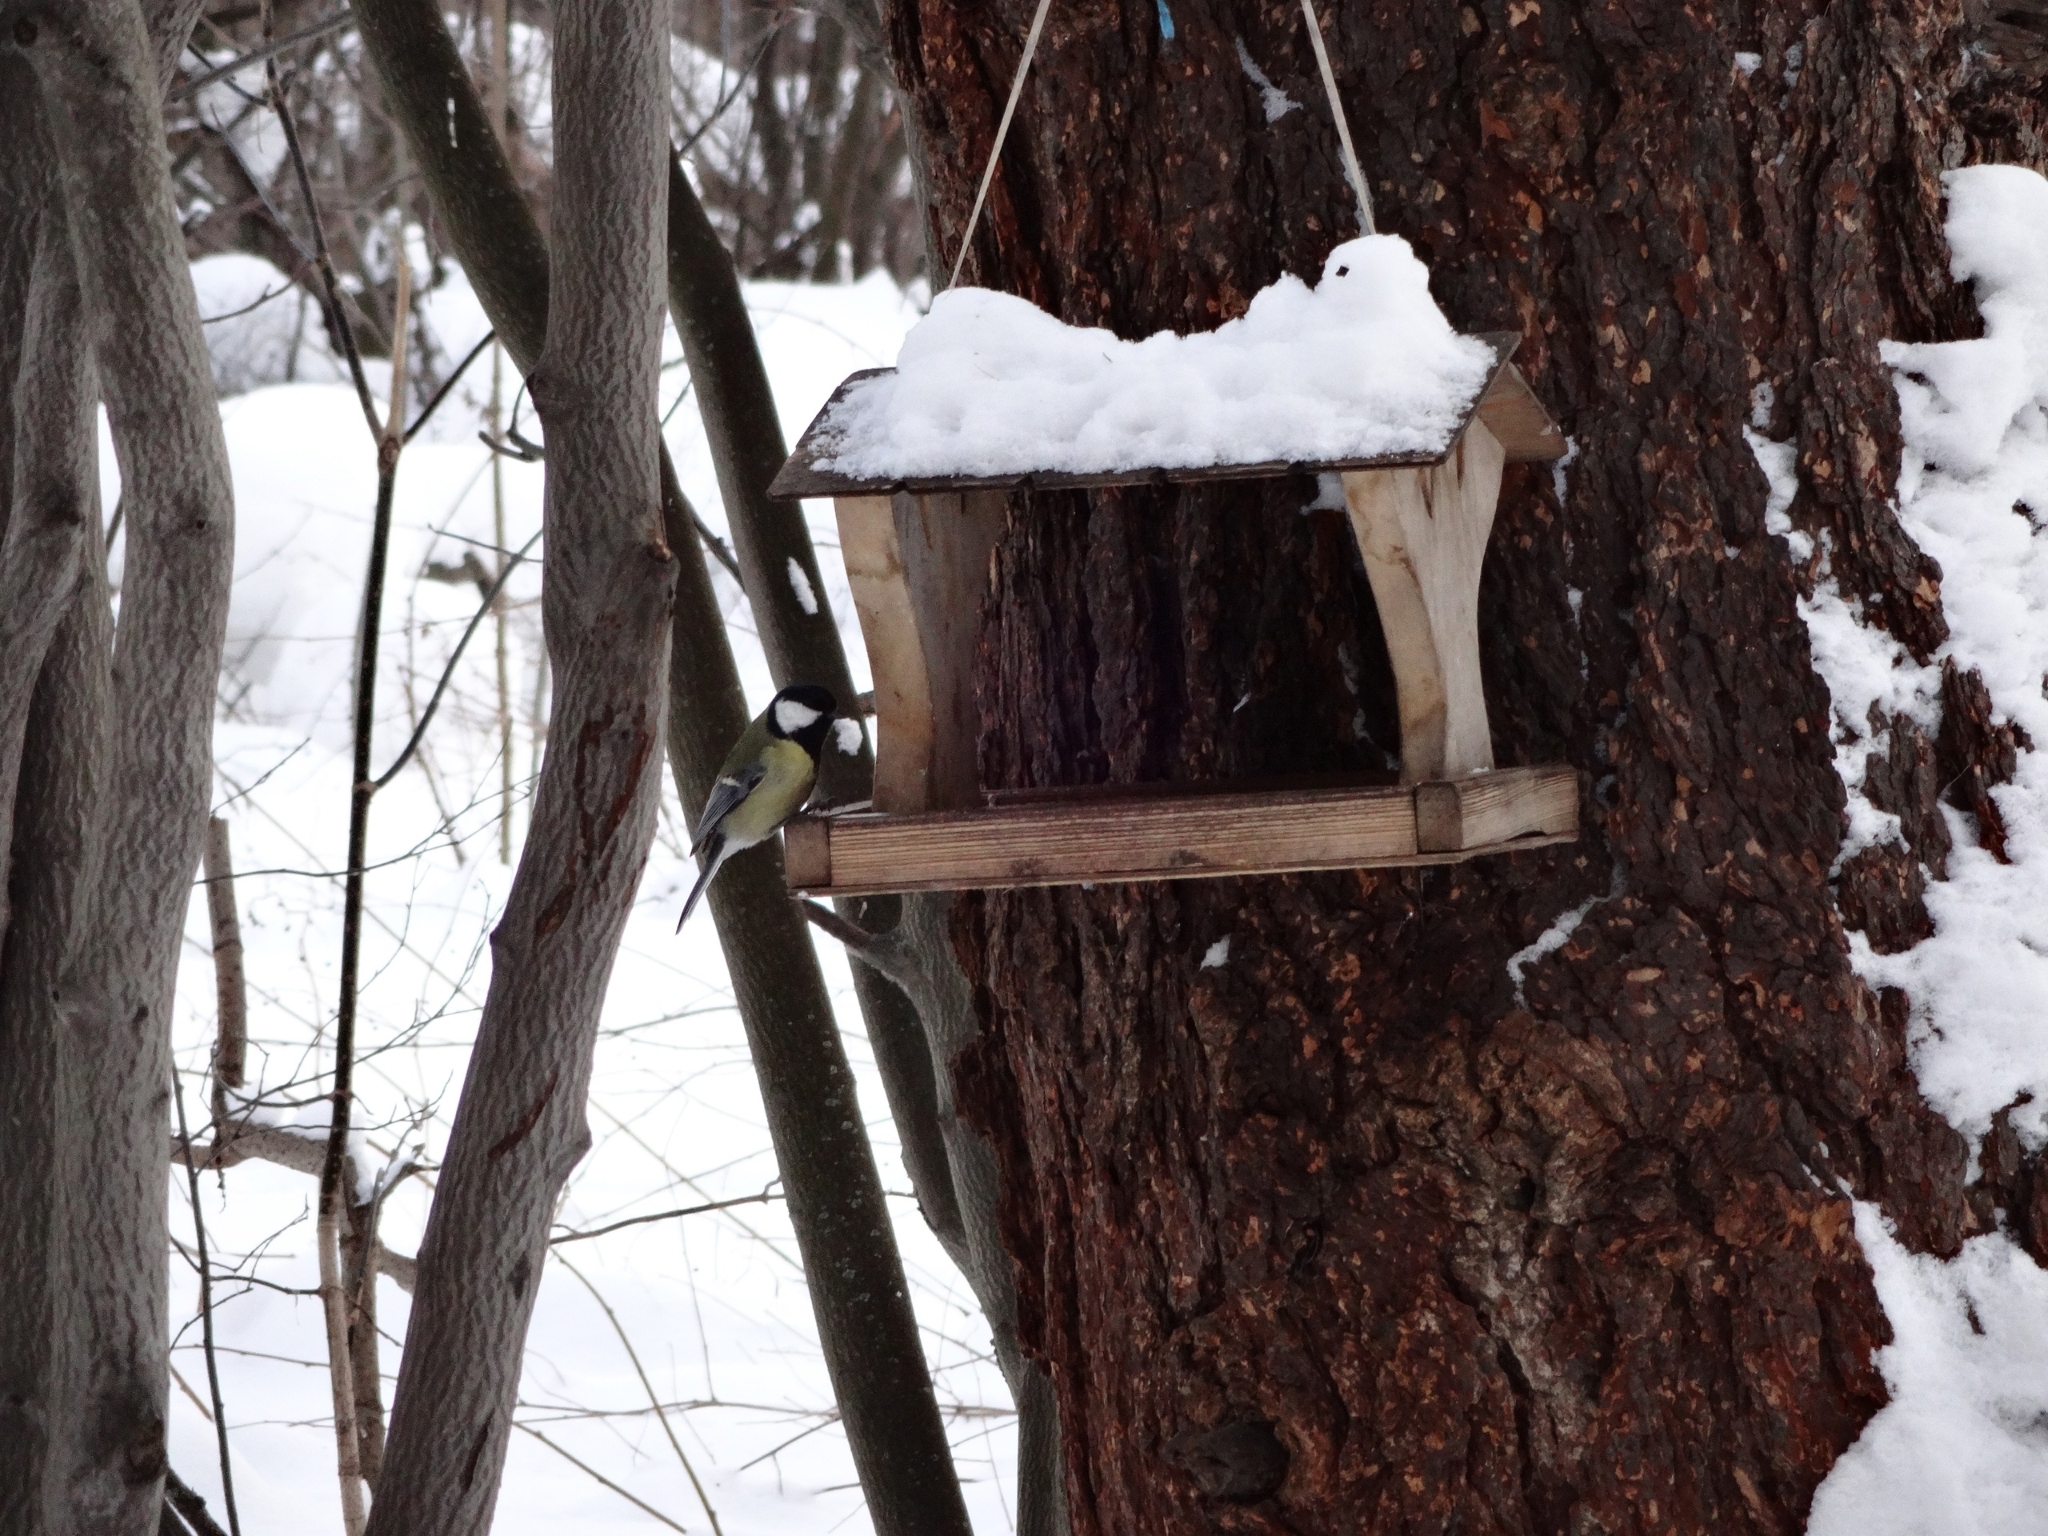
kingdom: Animalia
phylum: Chordata
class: Aves
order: Passeriformes
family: Paridae
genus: Parus
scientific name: Parus major
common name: Great tit
